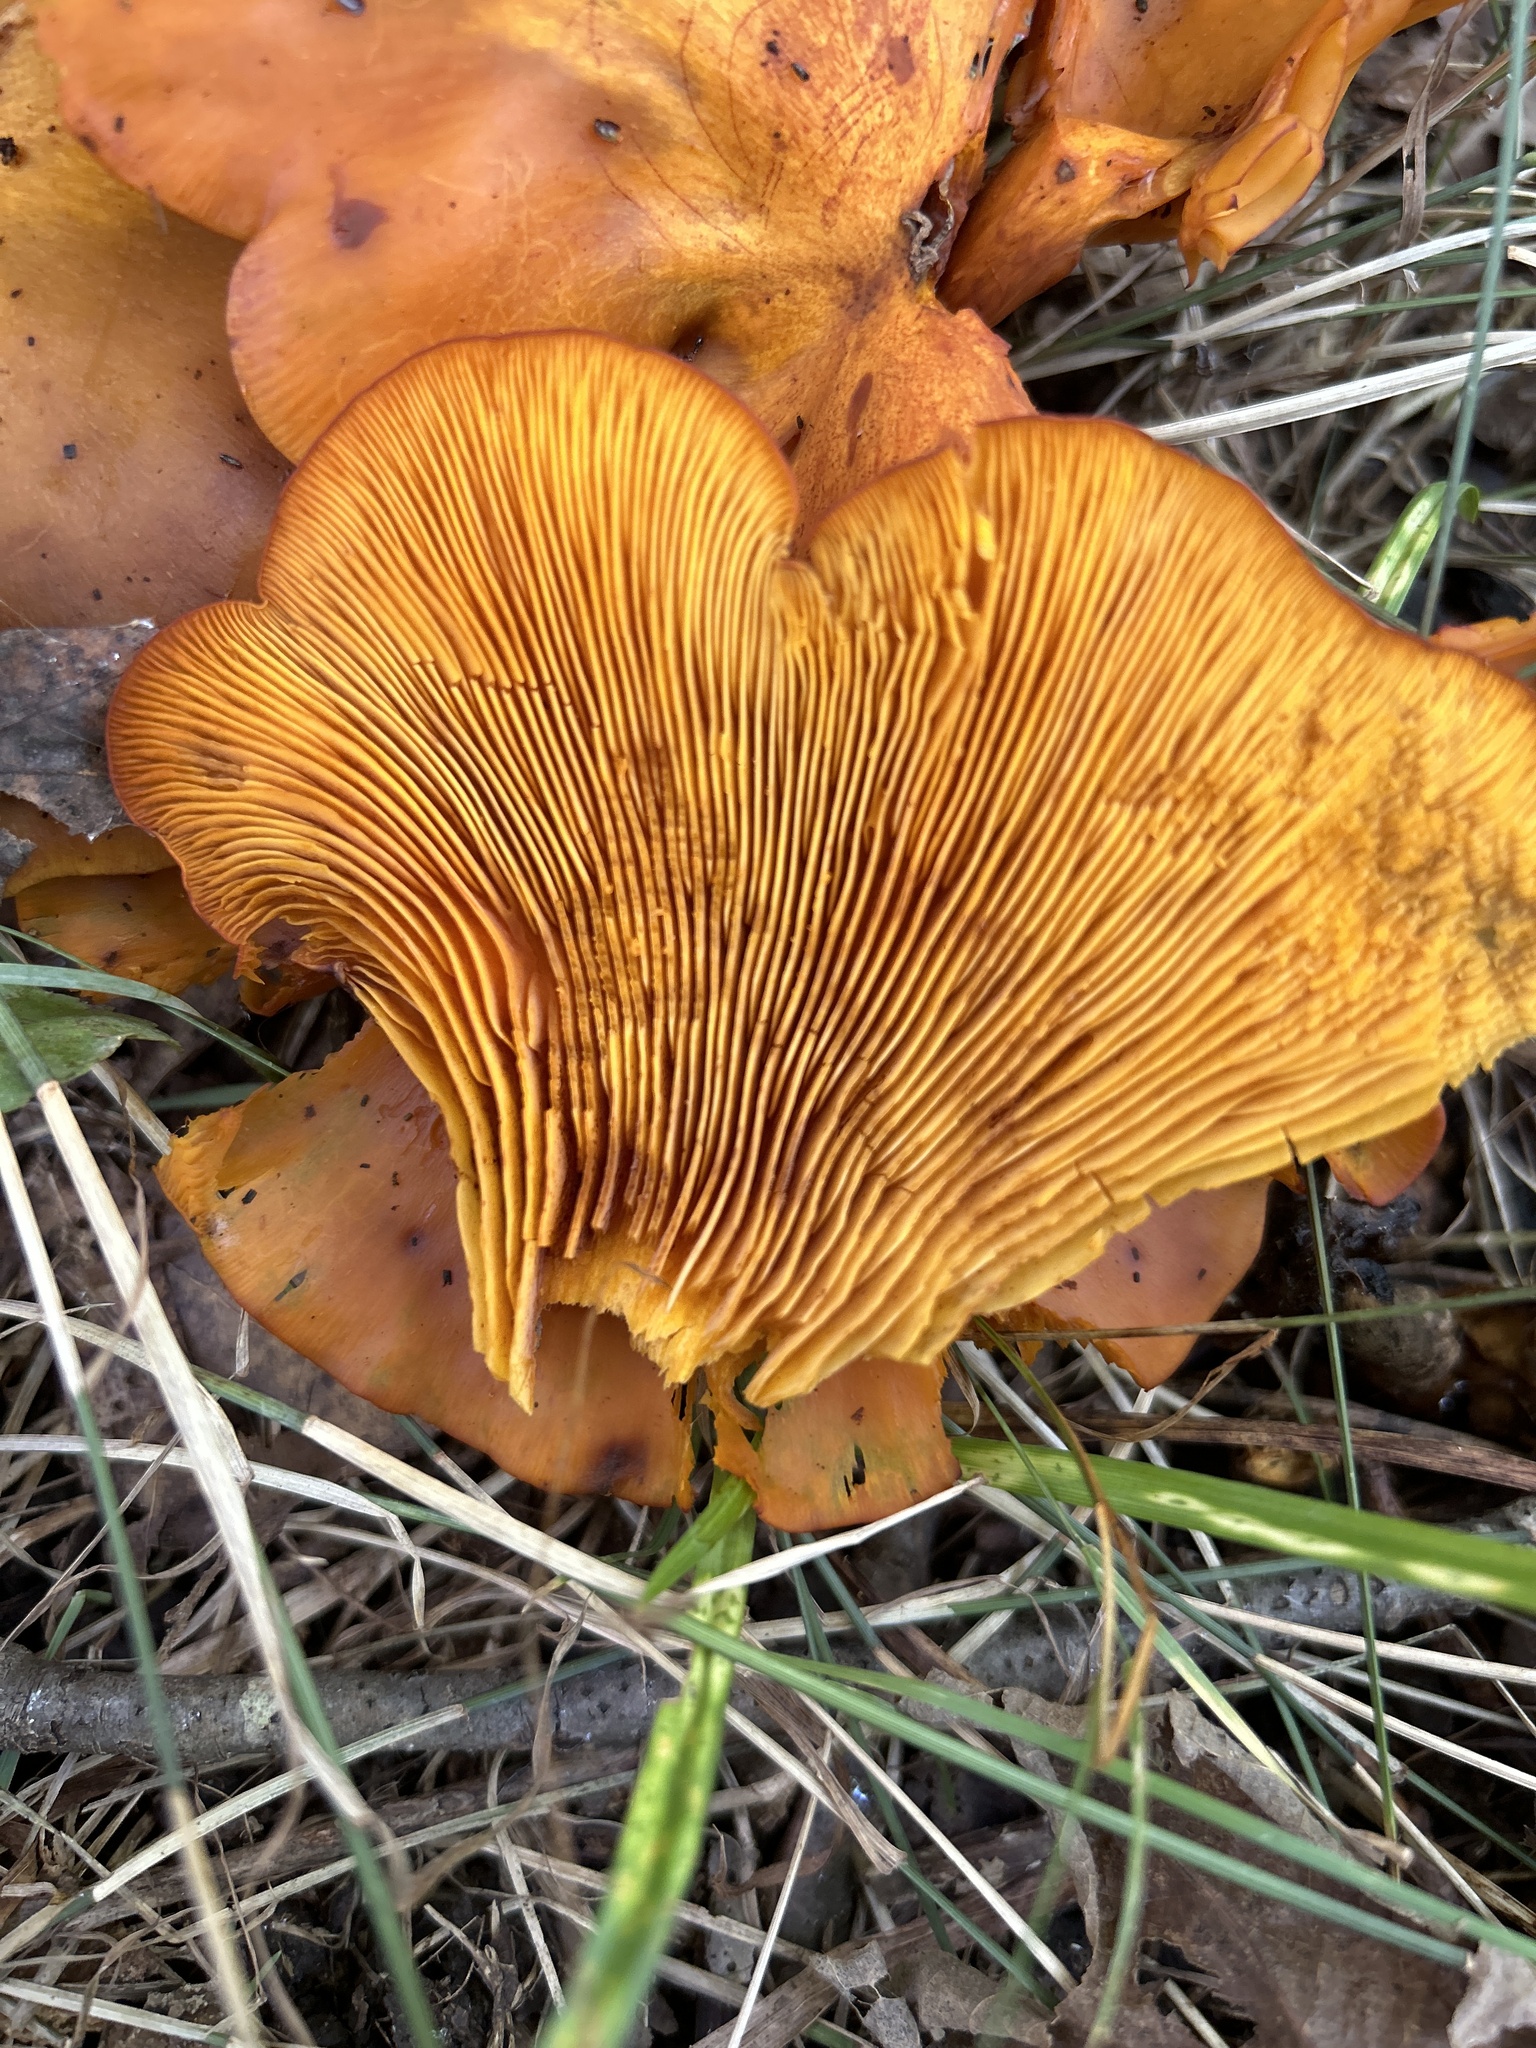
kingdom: Fungi
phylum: Basidiomycota
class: Agaricomycetes
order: Agaricales
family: Omphalotaceae
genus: Omphalotus
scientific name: Omphalotus illudens
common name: Jack o lantern
